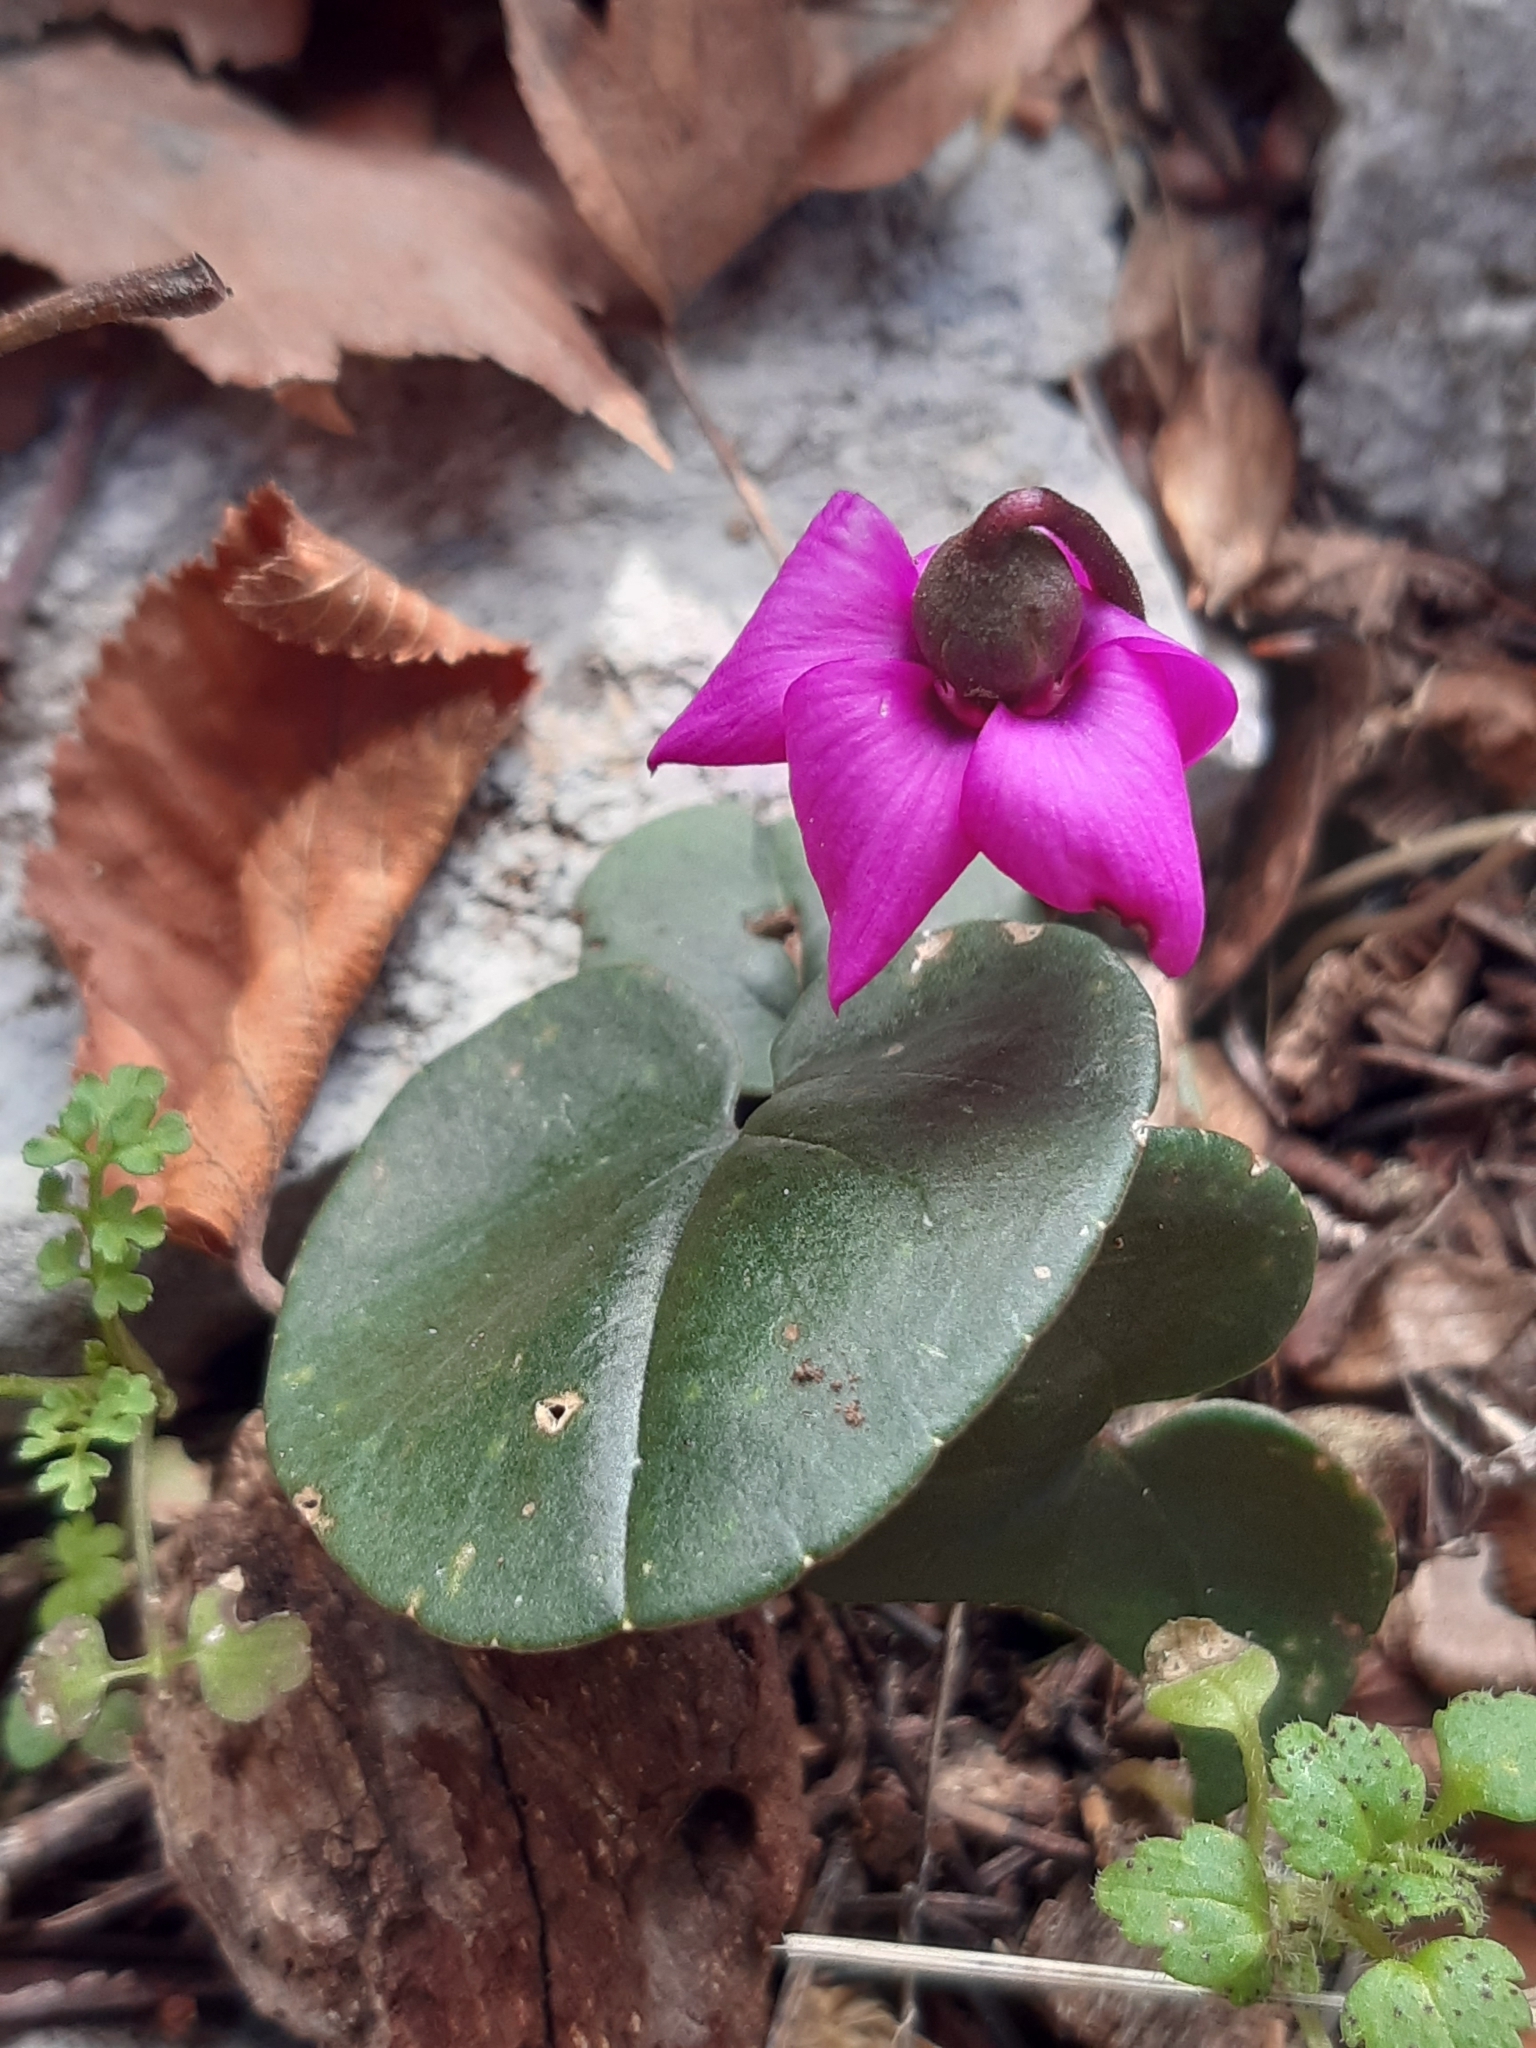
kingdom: Plantae
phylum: Tracheophyta
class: Magnoliopsida
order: Ericales
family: Primulaceae
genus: Cyclamen
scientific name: Cyclamen alpinum
